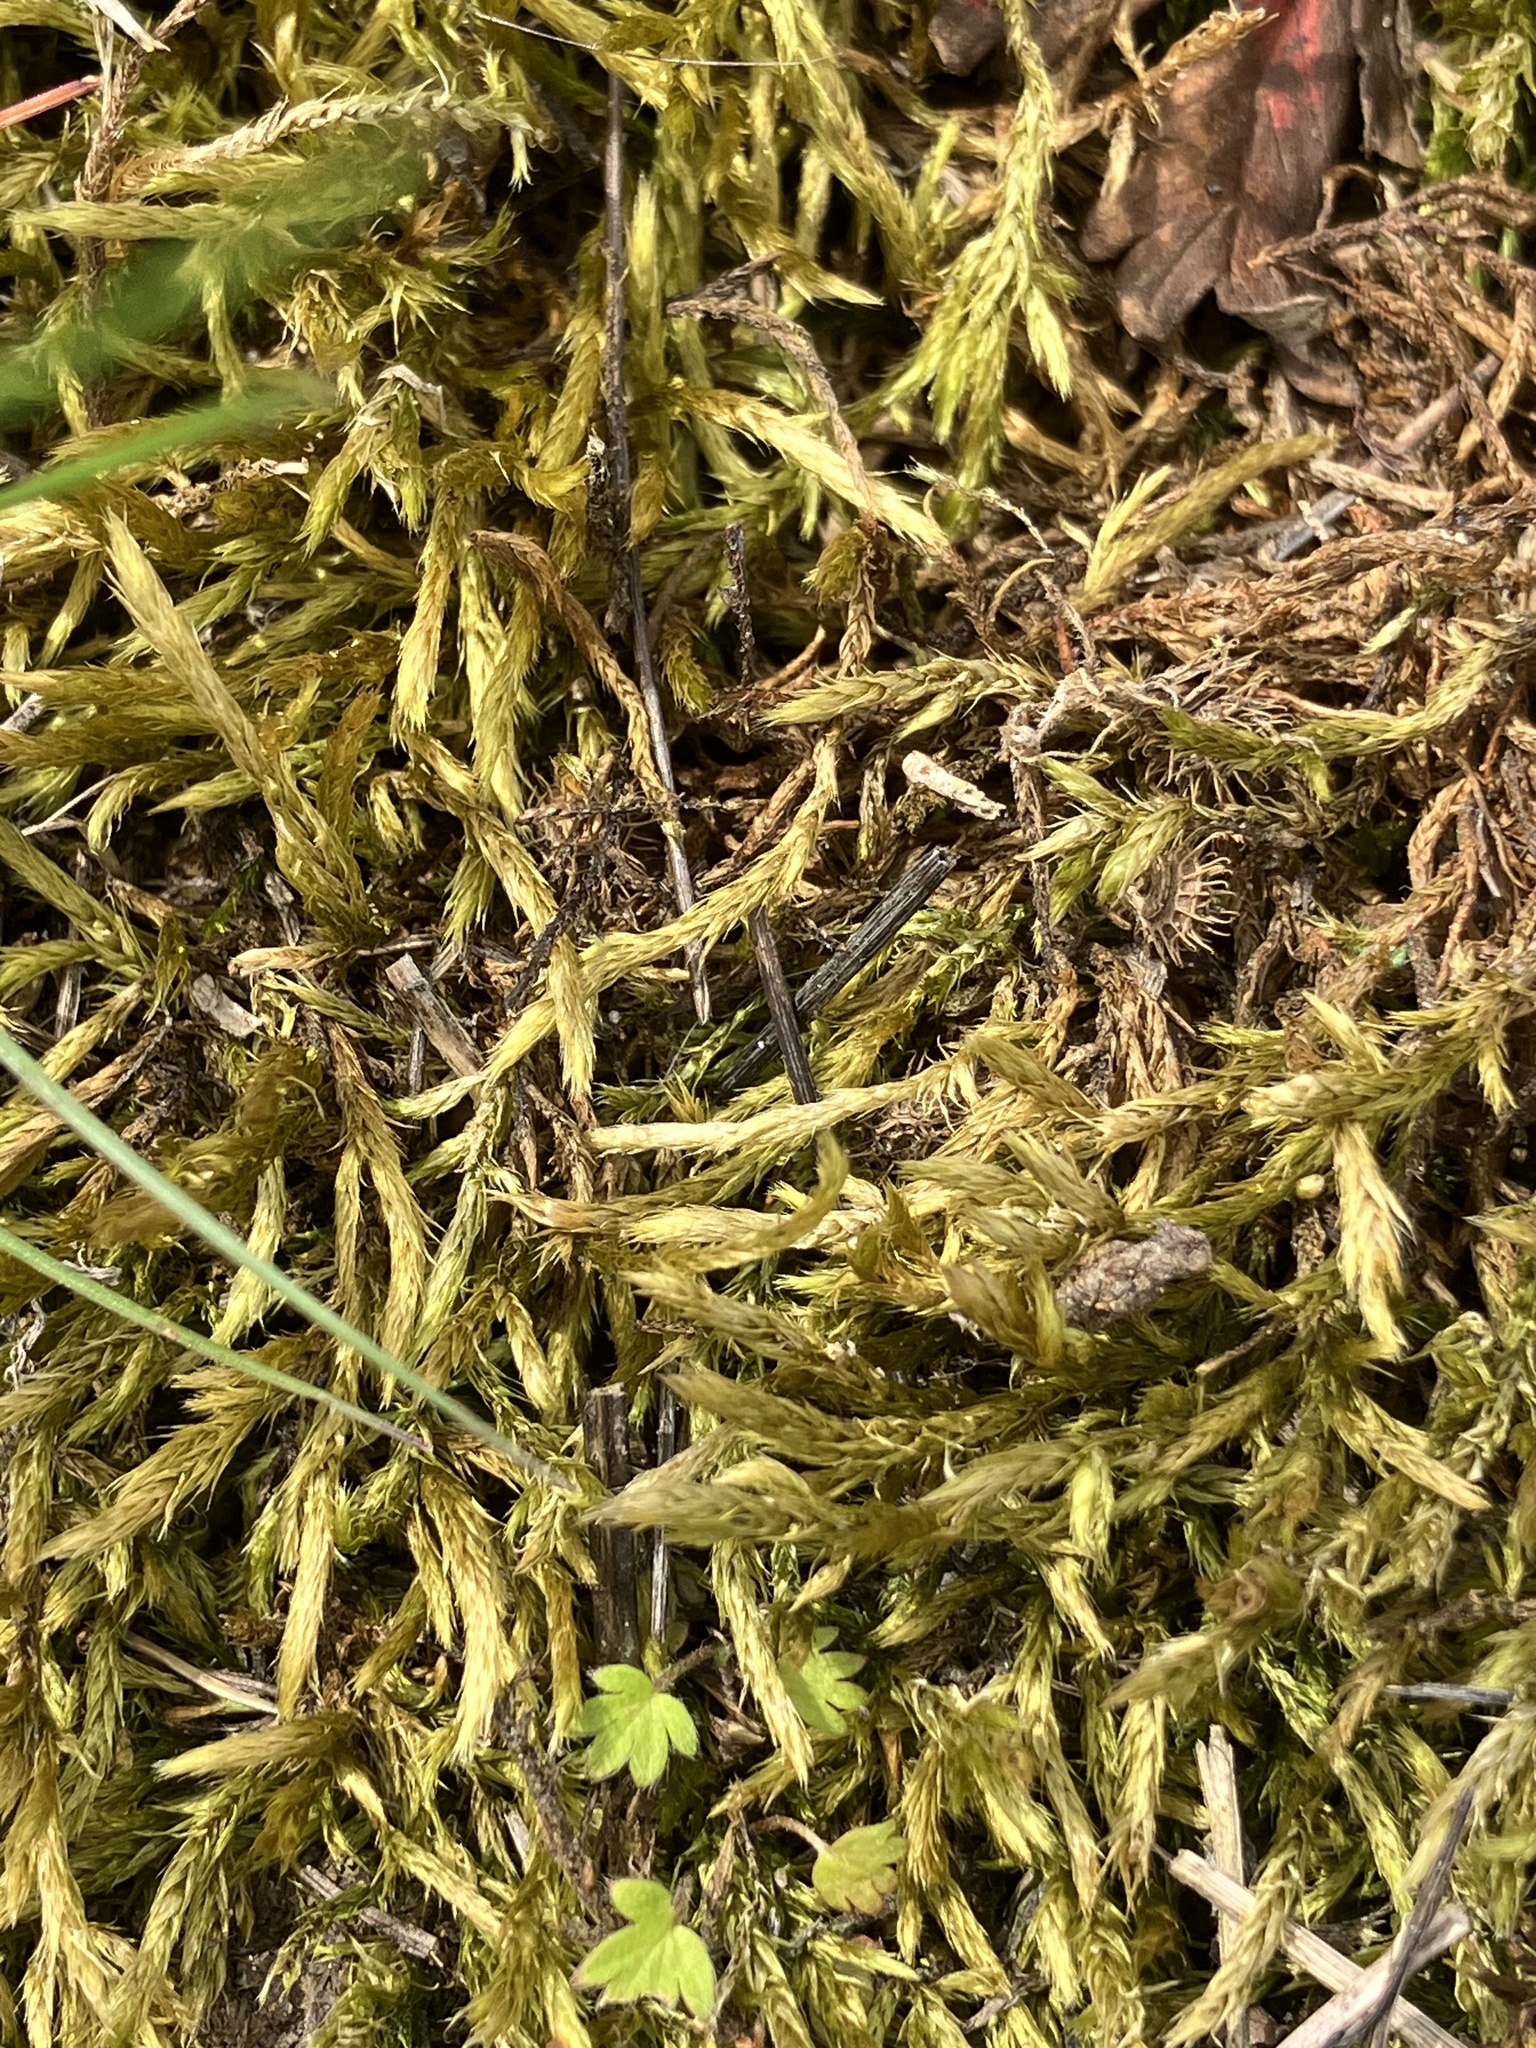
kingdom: Plantae
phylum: Bryophyta
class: Bryopsida
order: Hypnales
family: Brachytheciaceae
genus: Brachythecium
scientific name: Brachythecium albicans
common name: Whitish ragged moss
